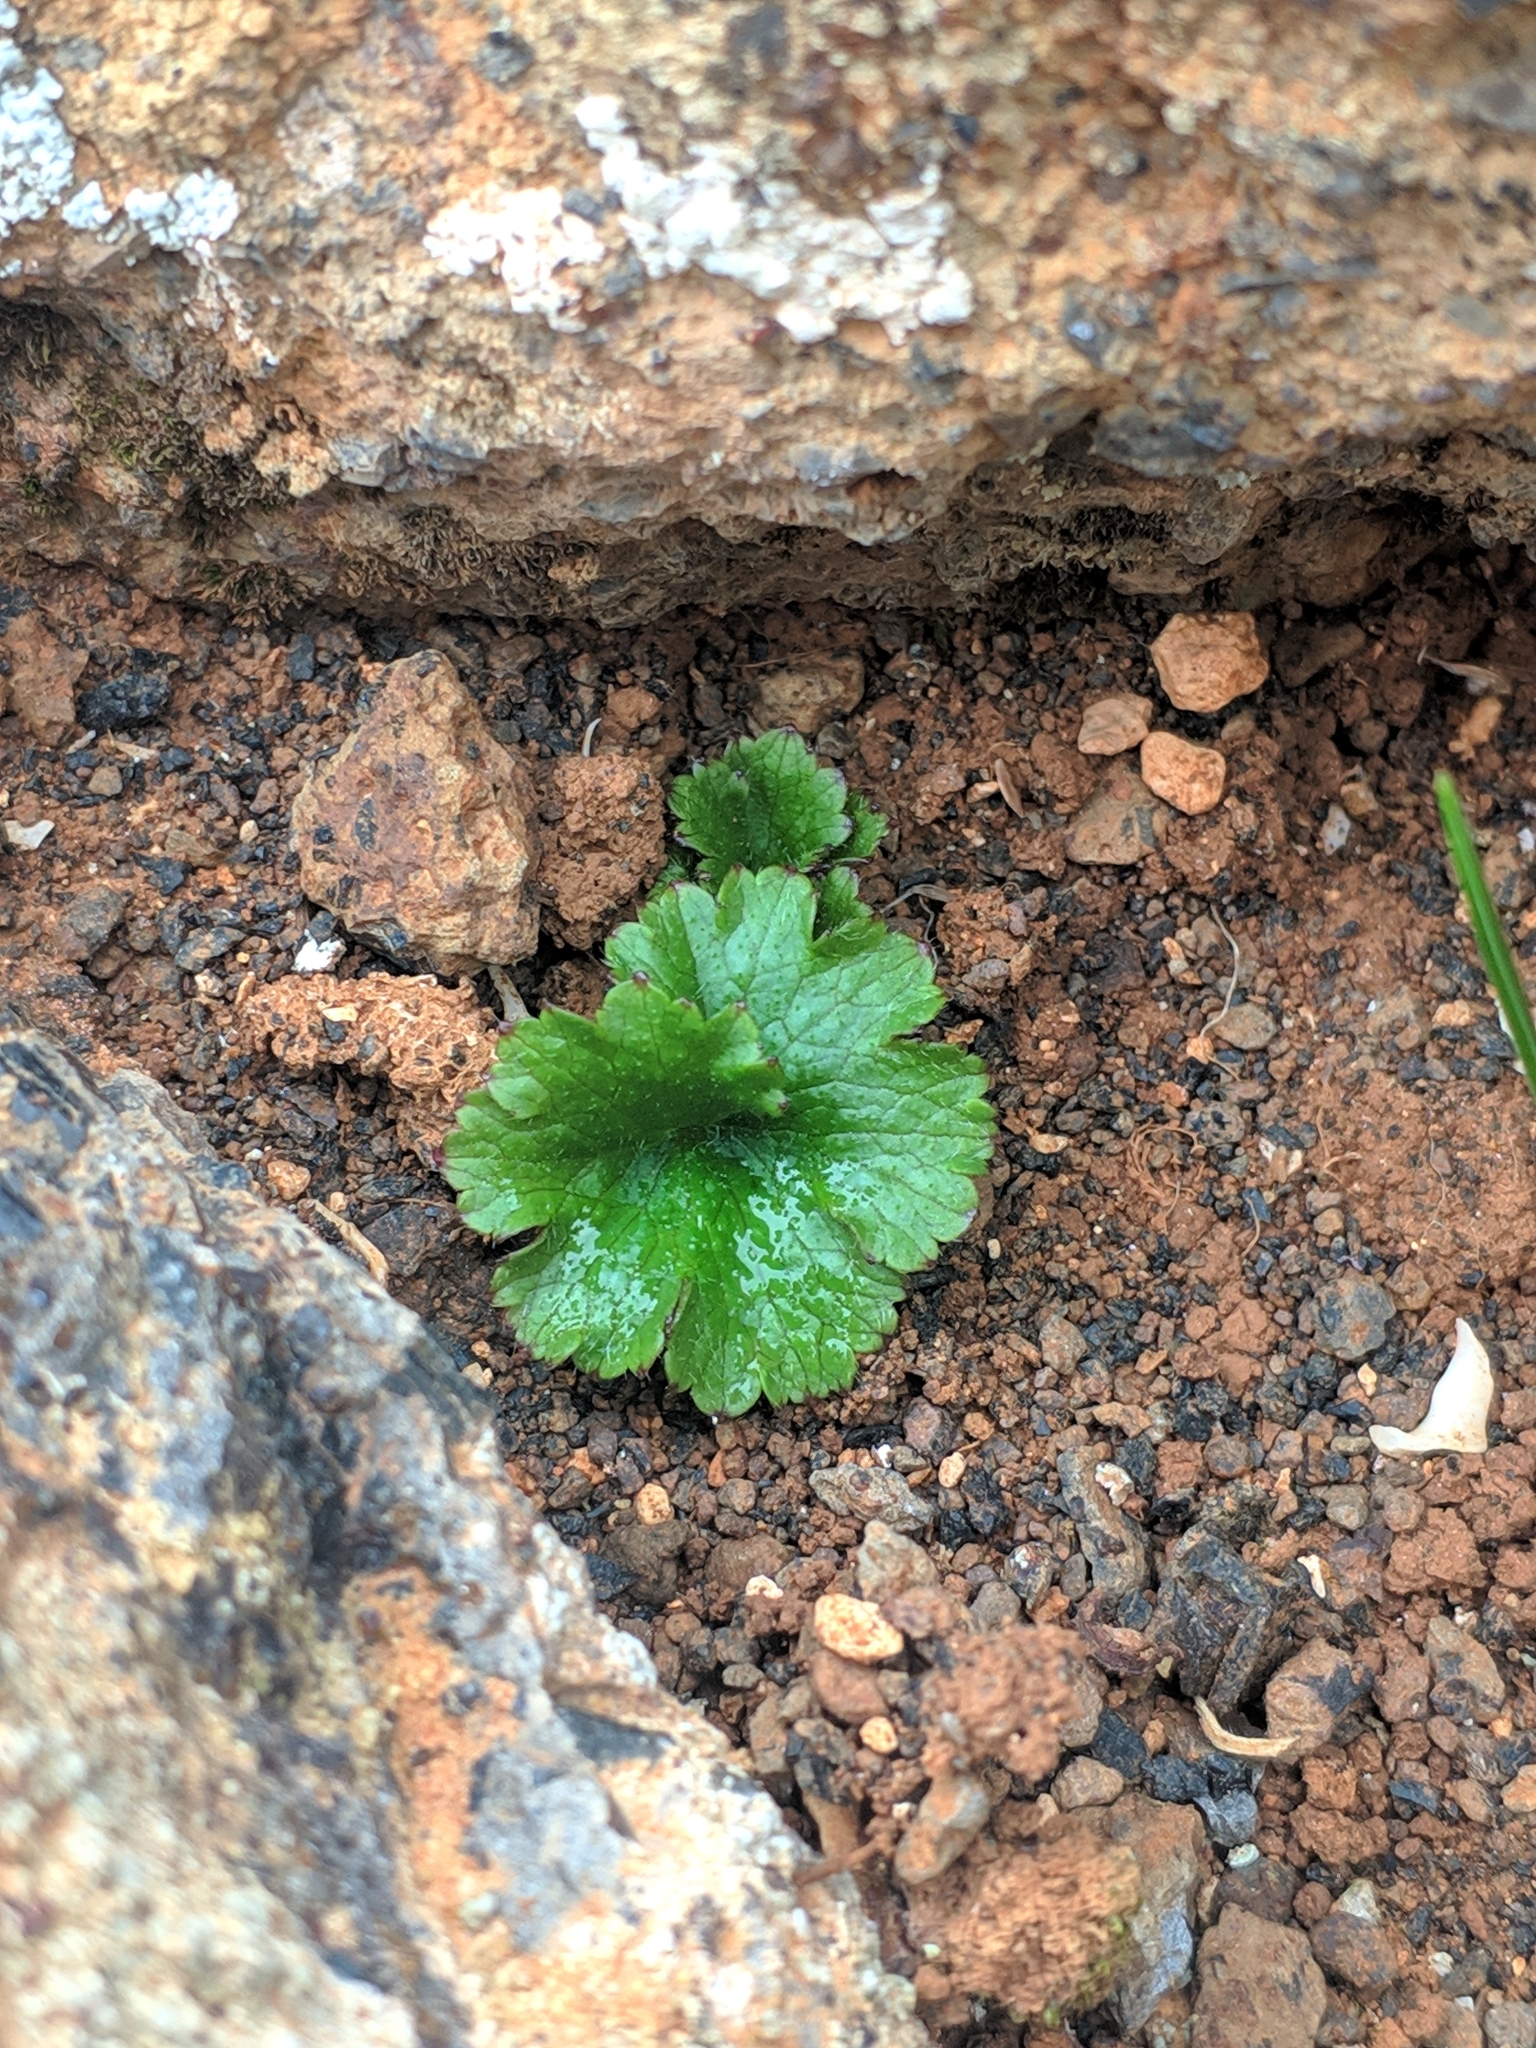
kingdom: Plantae
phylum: Tracheophyta
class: Magnoliopsida
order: Ranunculales
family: Ranunculaceae
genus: Ranunculus
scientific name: Ranunculus cortusifolius
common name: Azores buttercup
